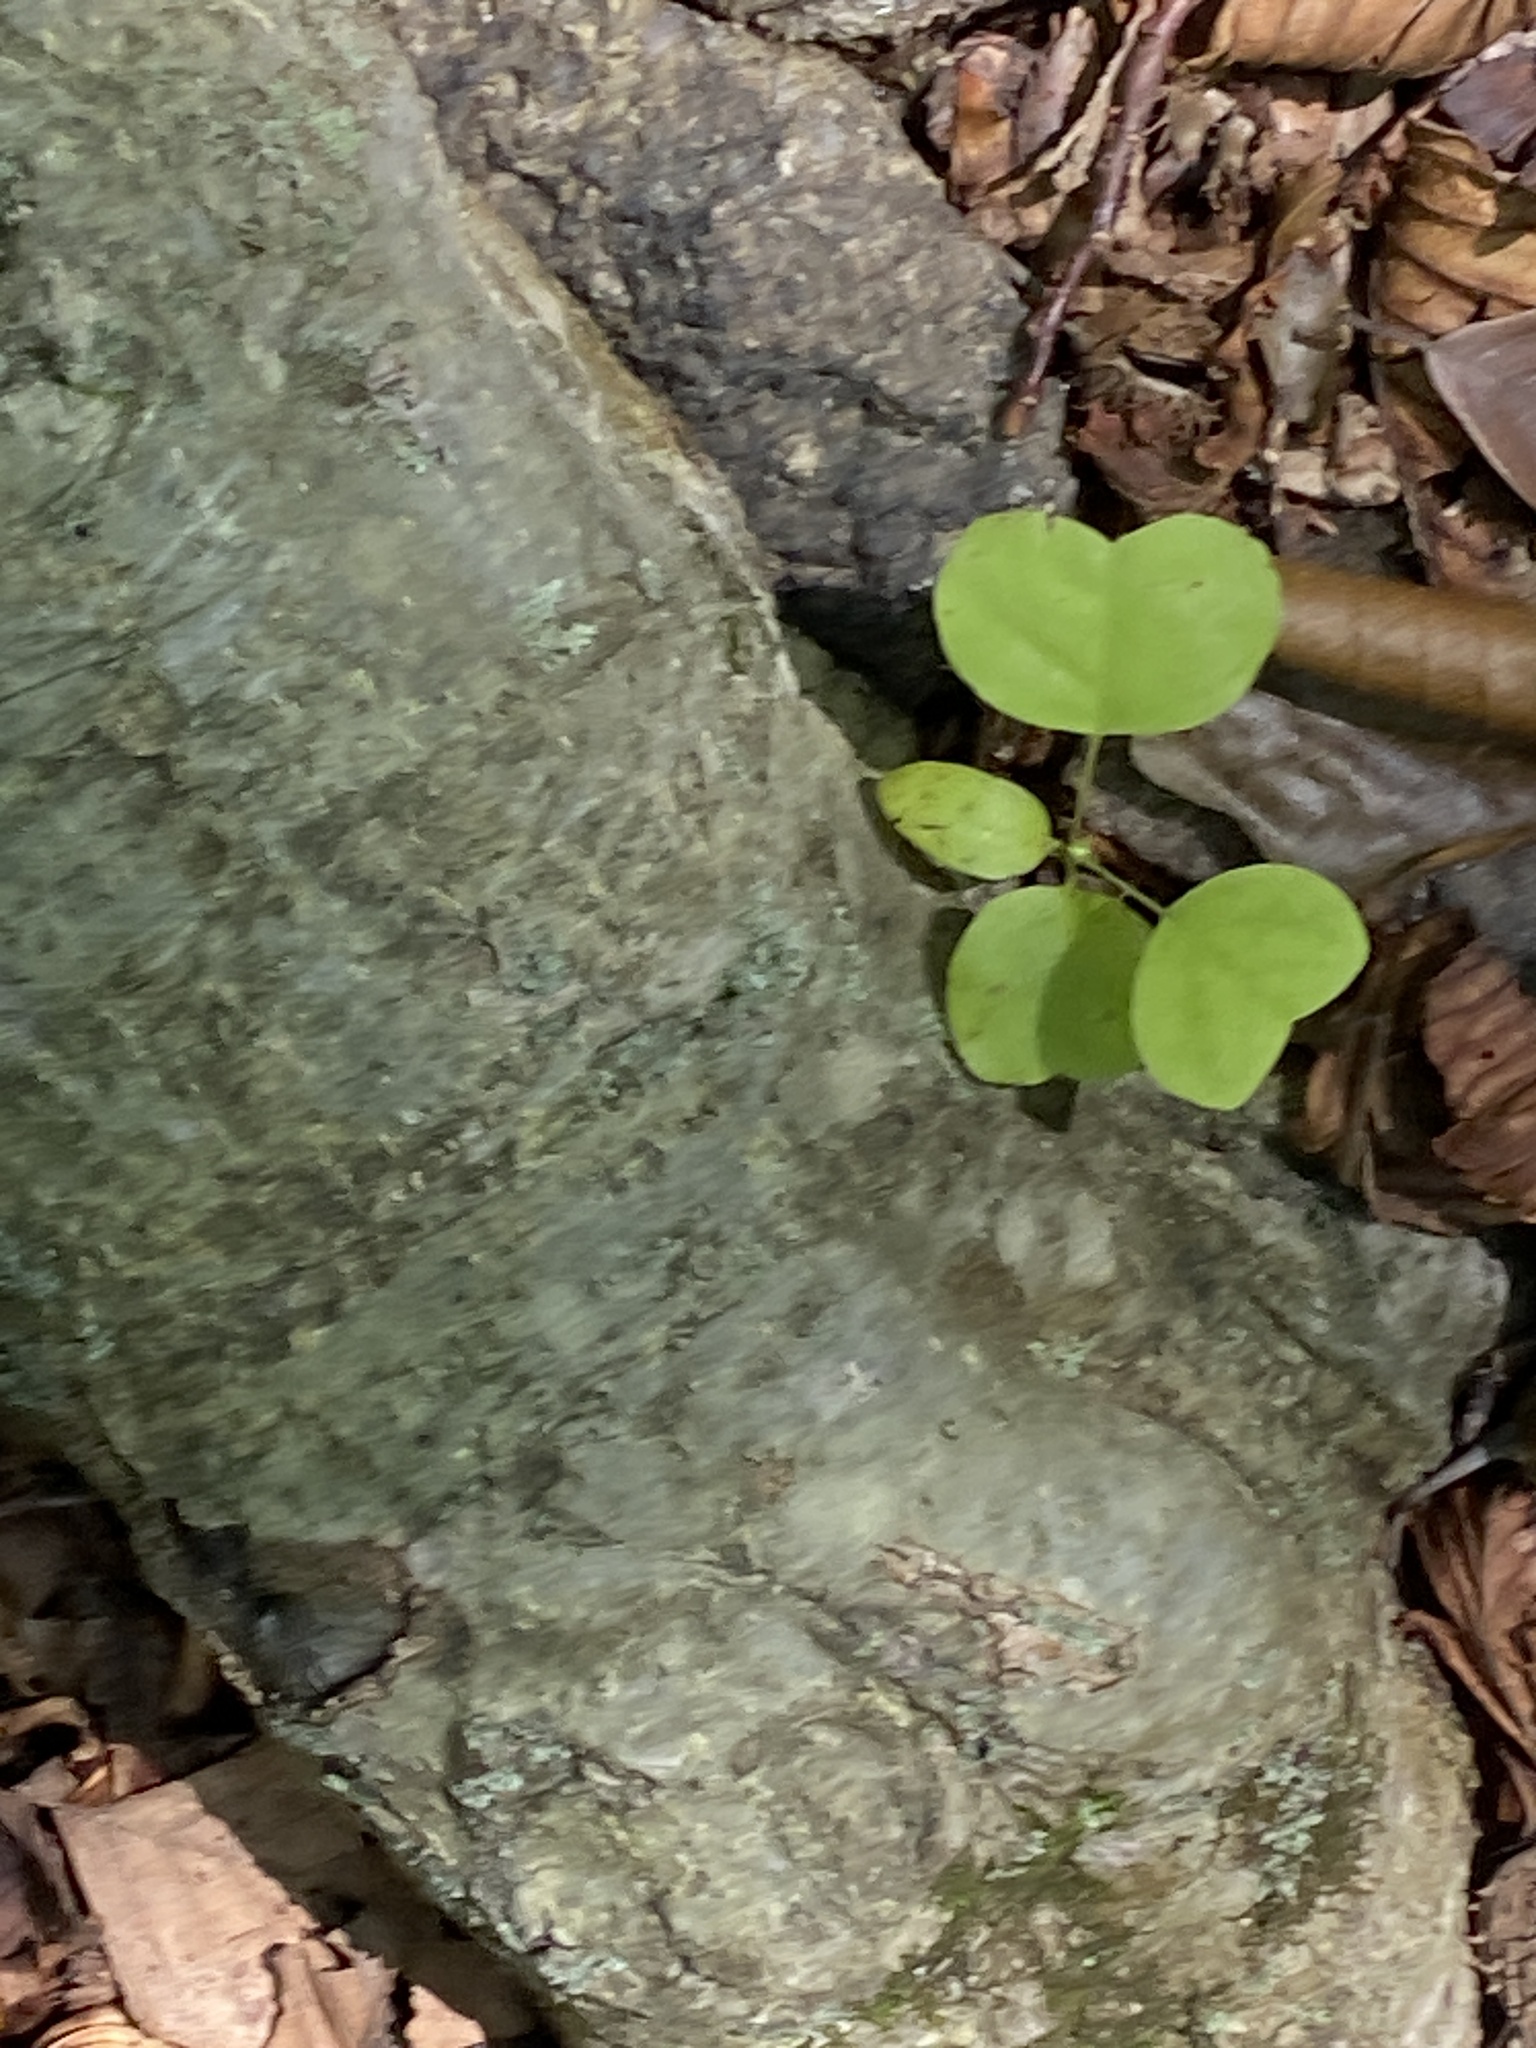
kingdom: Plantae
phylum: Tracheophyta
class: Magnoliopsida
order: Magnoliales
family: Magnoliaceae
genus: Liriodendron
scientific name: Liriodendron tulipifera
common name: Tulip tree
